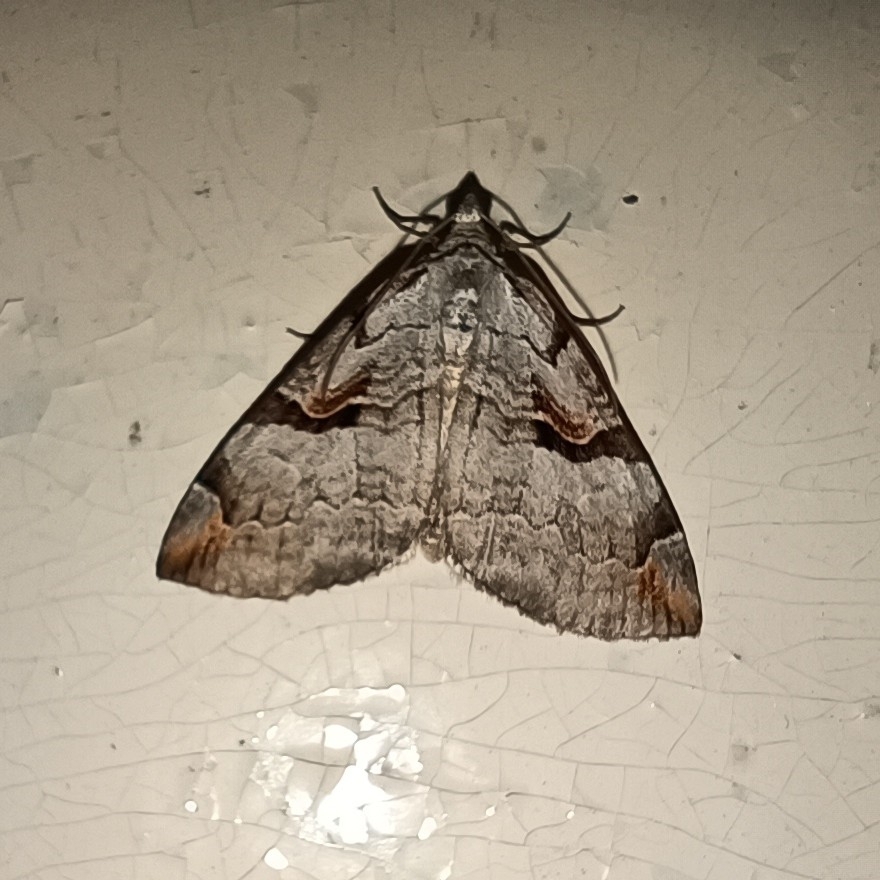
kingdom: Animalia
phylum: Arthropoda
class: Insecta
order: Lepidoptera
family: Geometridae
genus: Aplocera
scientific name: Aplocera praeformata
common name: Purple treble-bar
